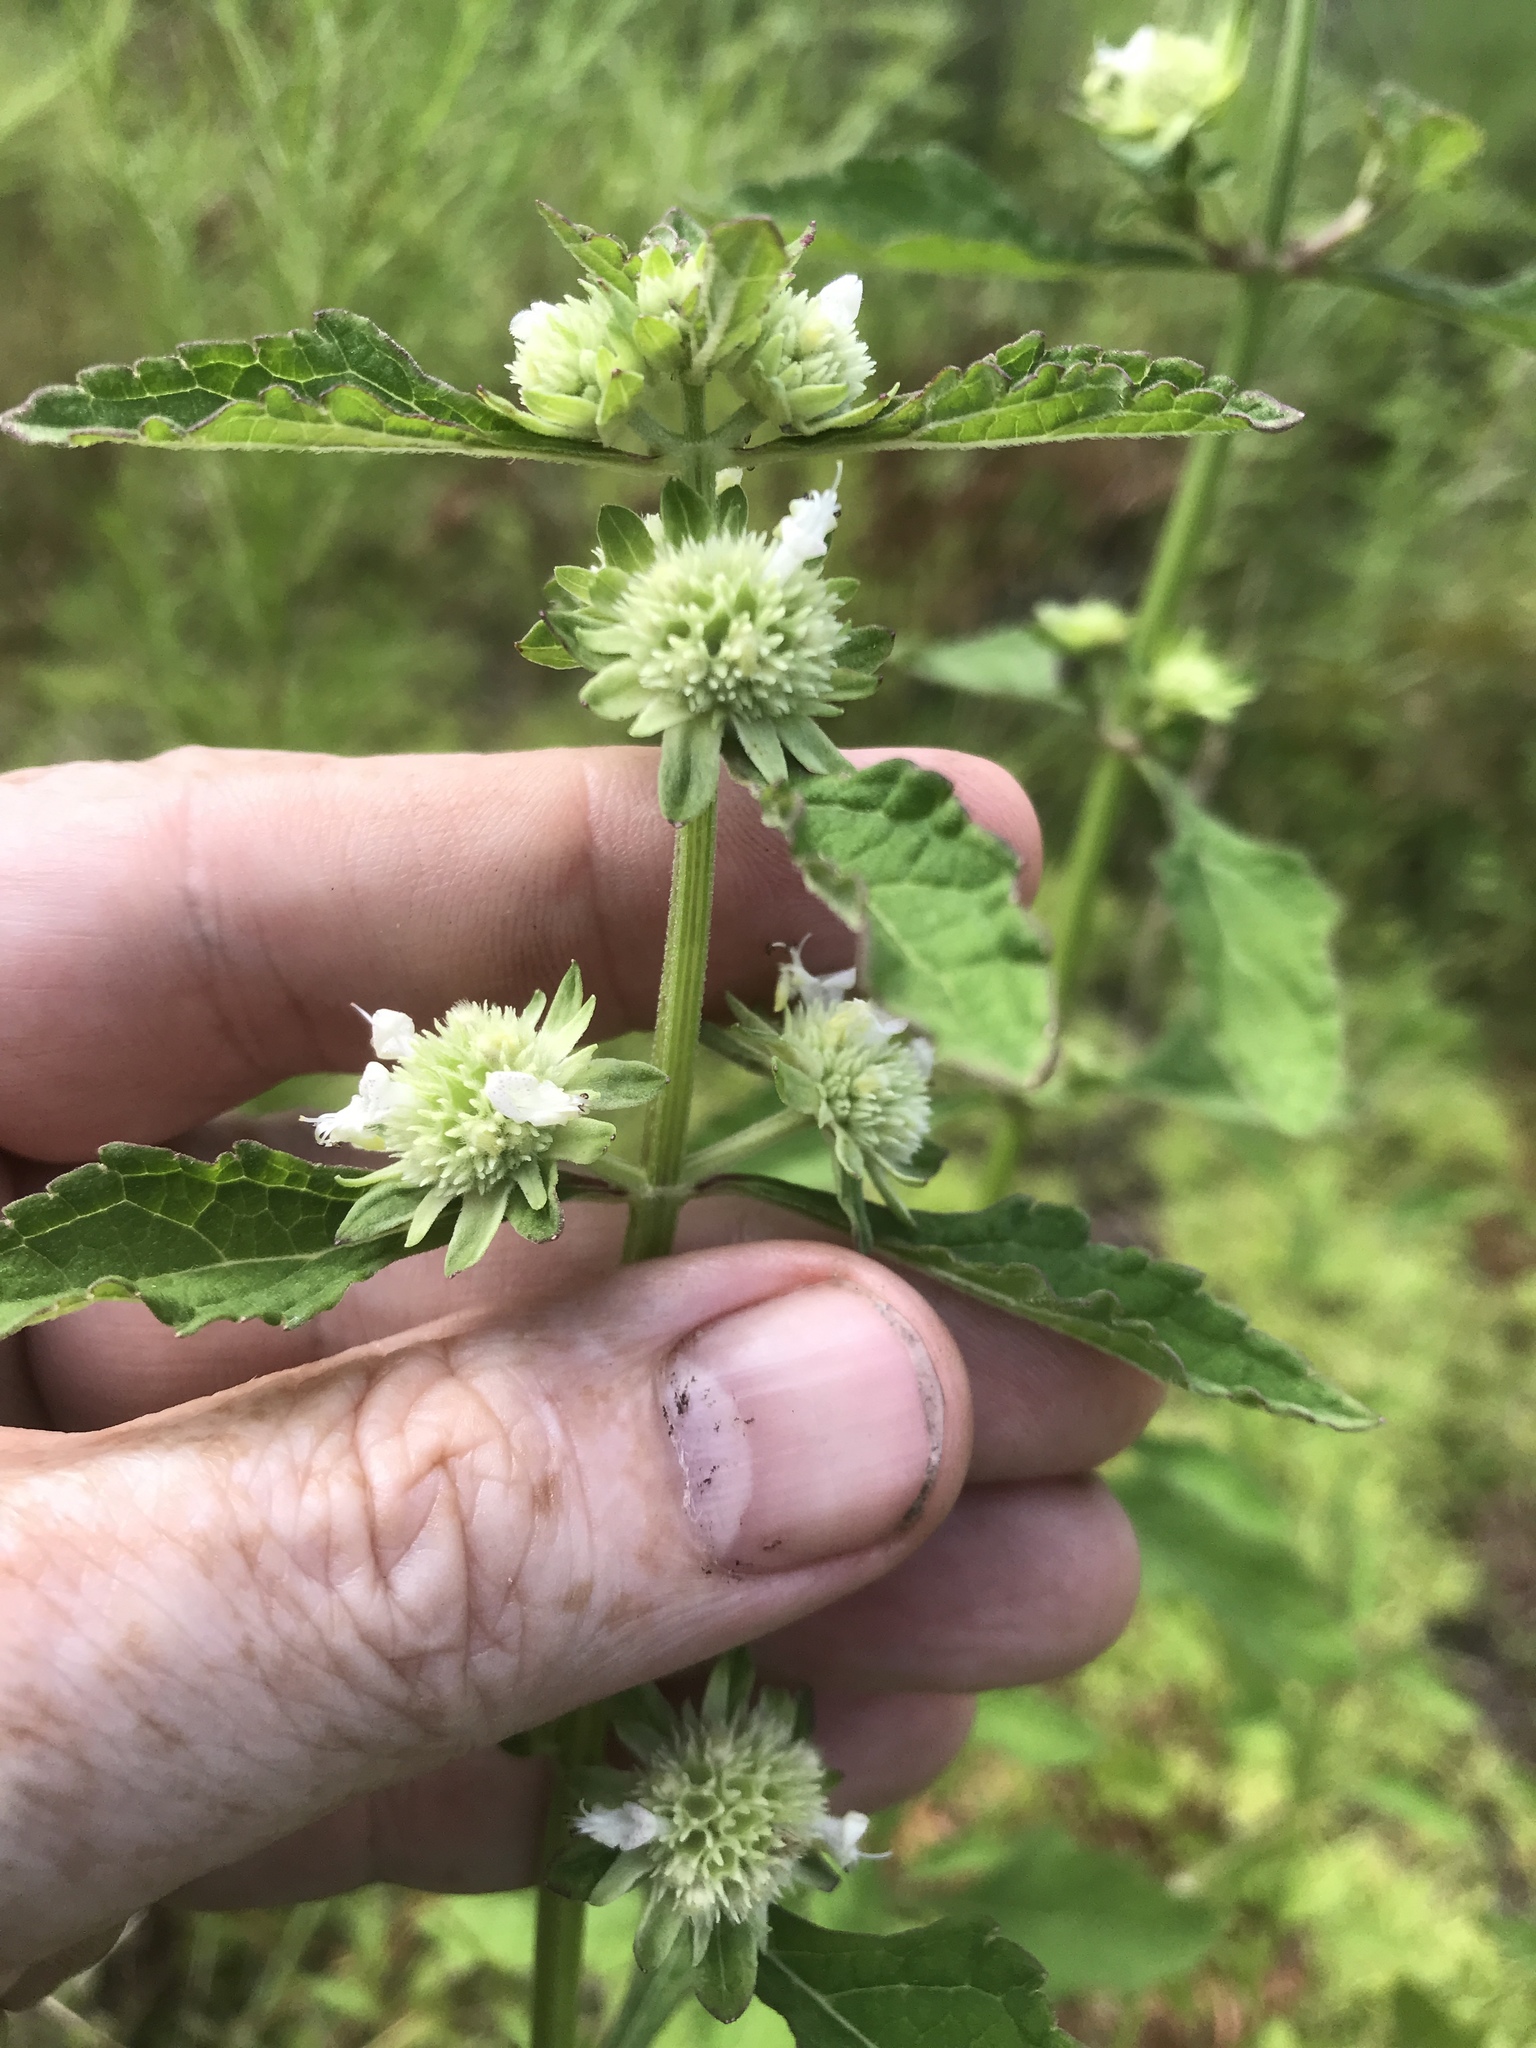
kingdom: Plantae
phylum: Tracheophyta
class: Magnoliopsida
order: Lamiales
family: Lamiaceae
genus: Hyptis
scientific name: Hyptis alata
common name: Cluster bush-mint
